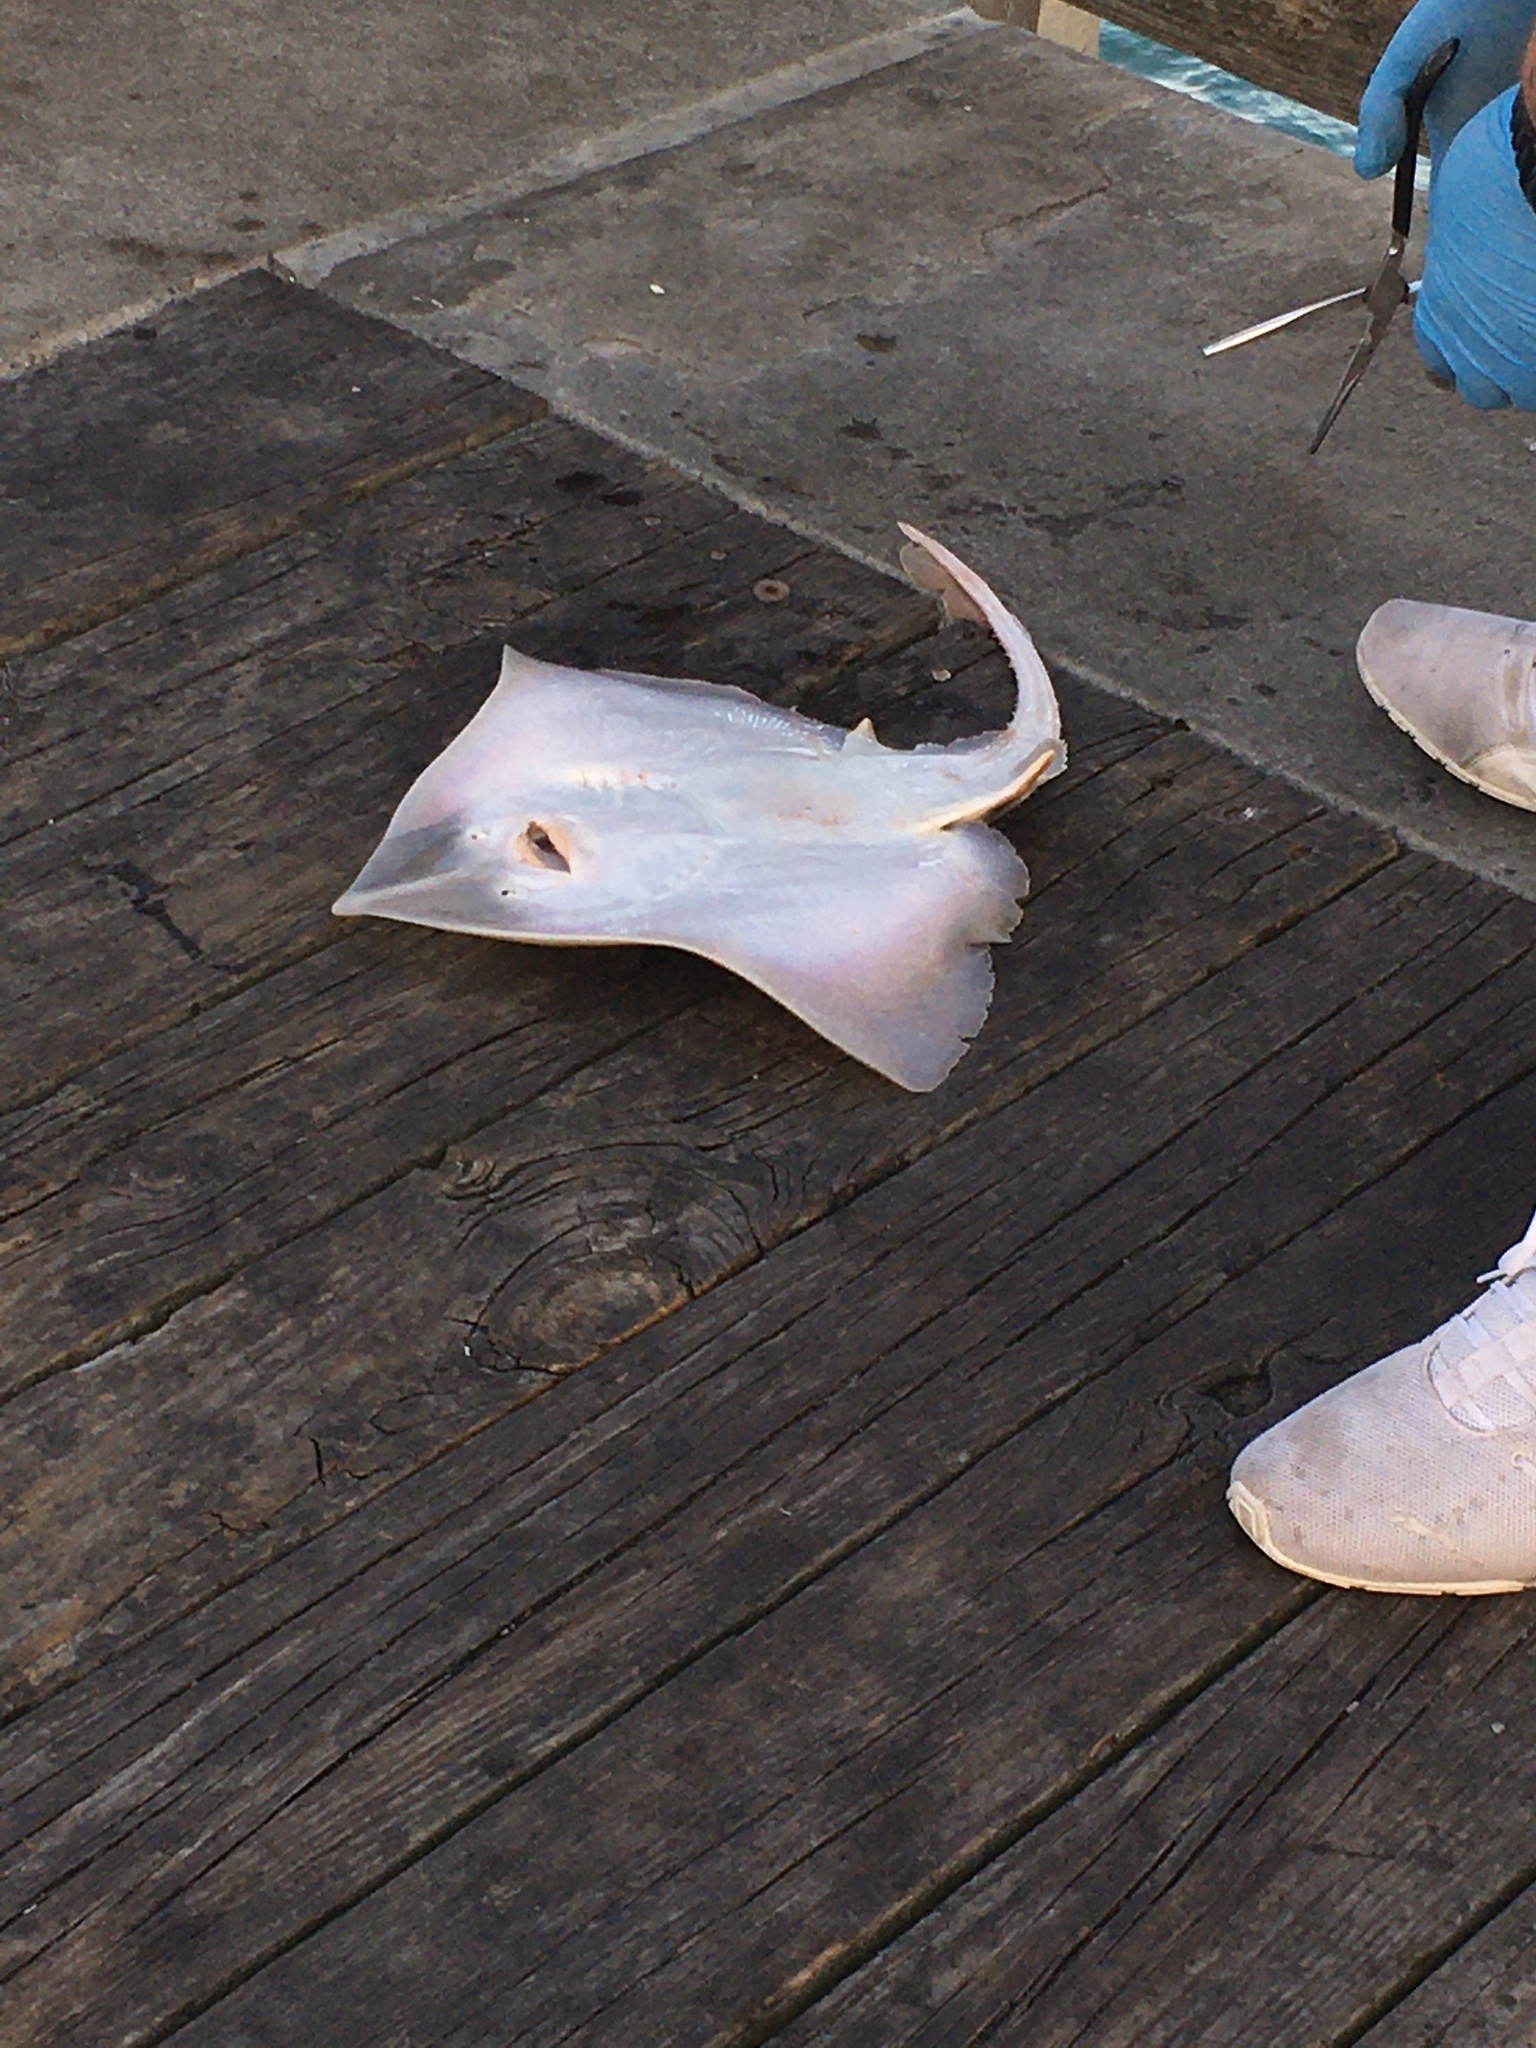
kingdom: Animalia
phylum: Chordata
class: Elasmobranchii
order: Rajiformes
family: Rajidae
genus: Raja
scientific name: Raja eglanteria
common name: Clearnose skate
